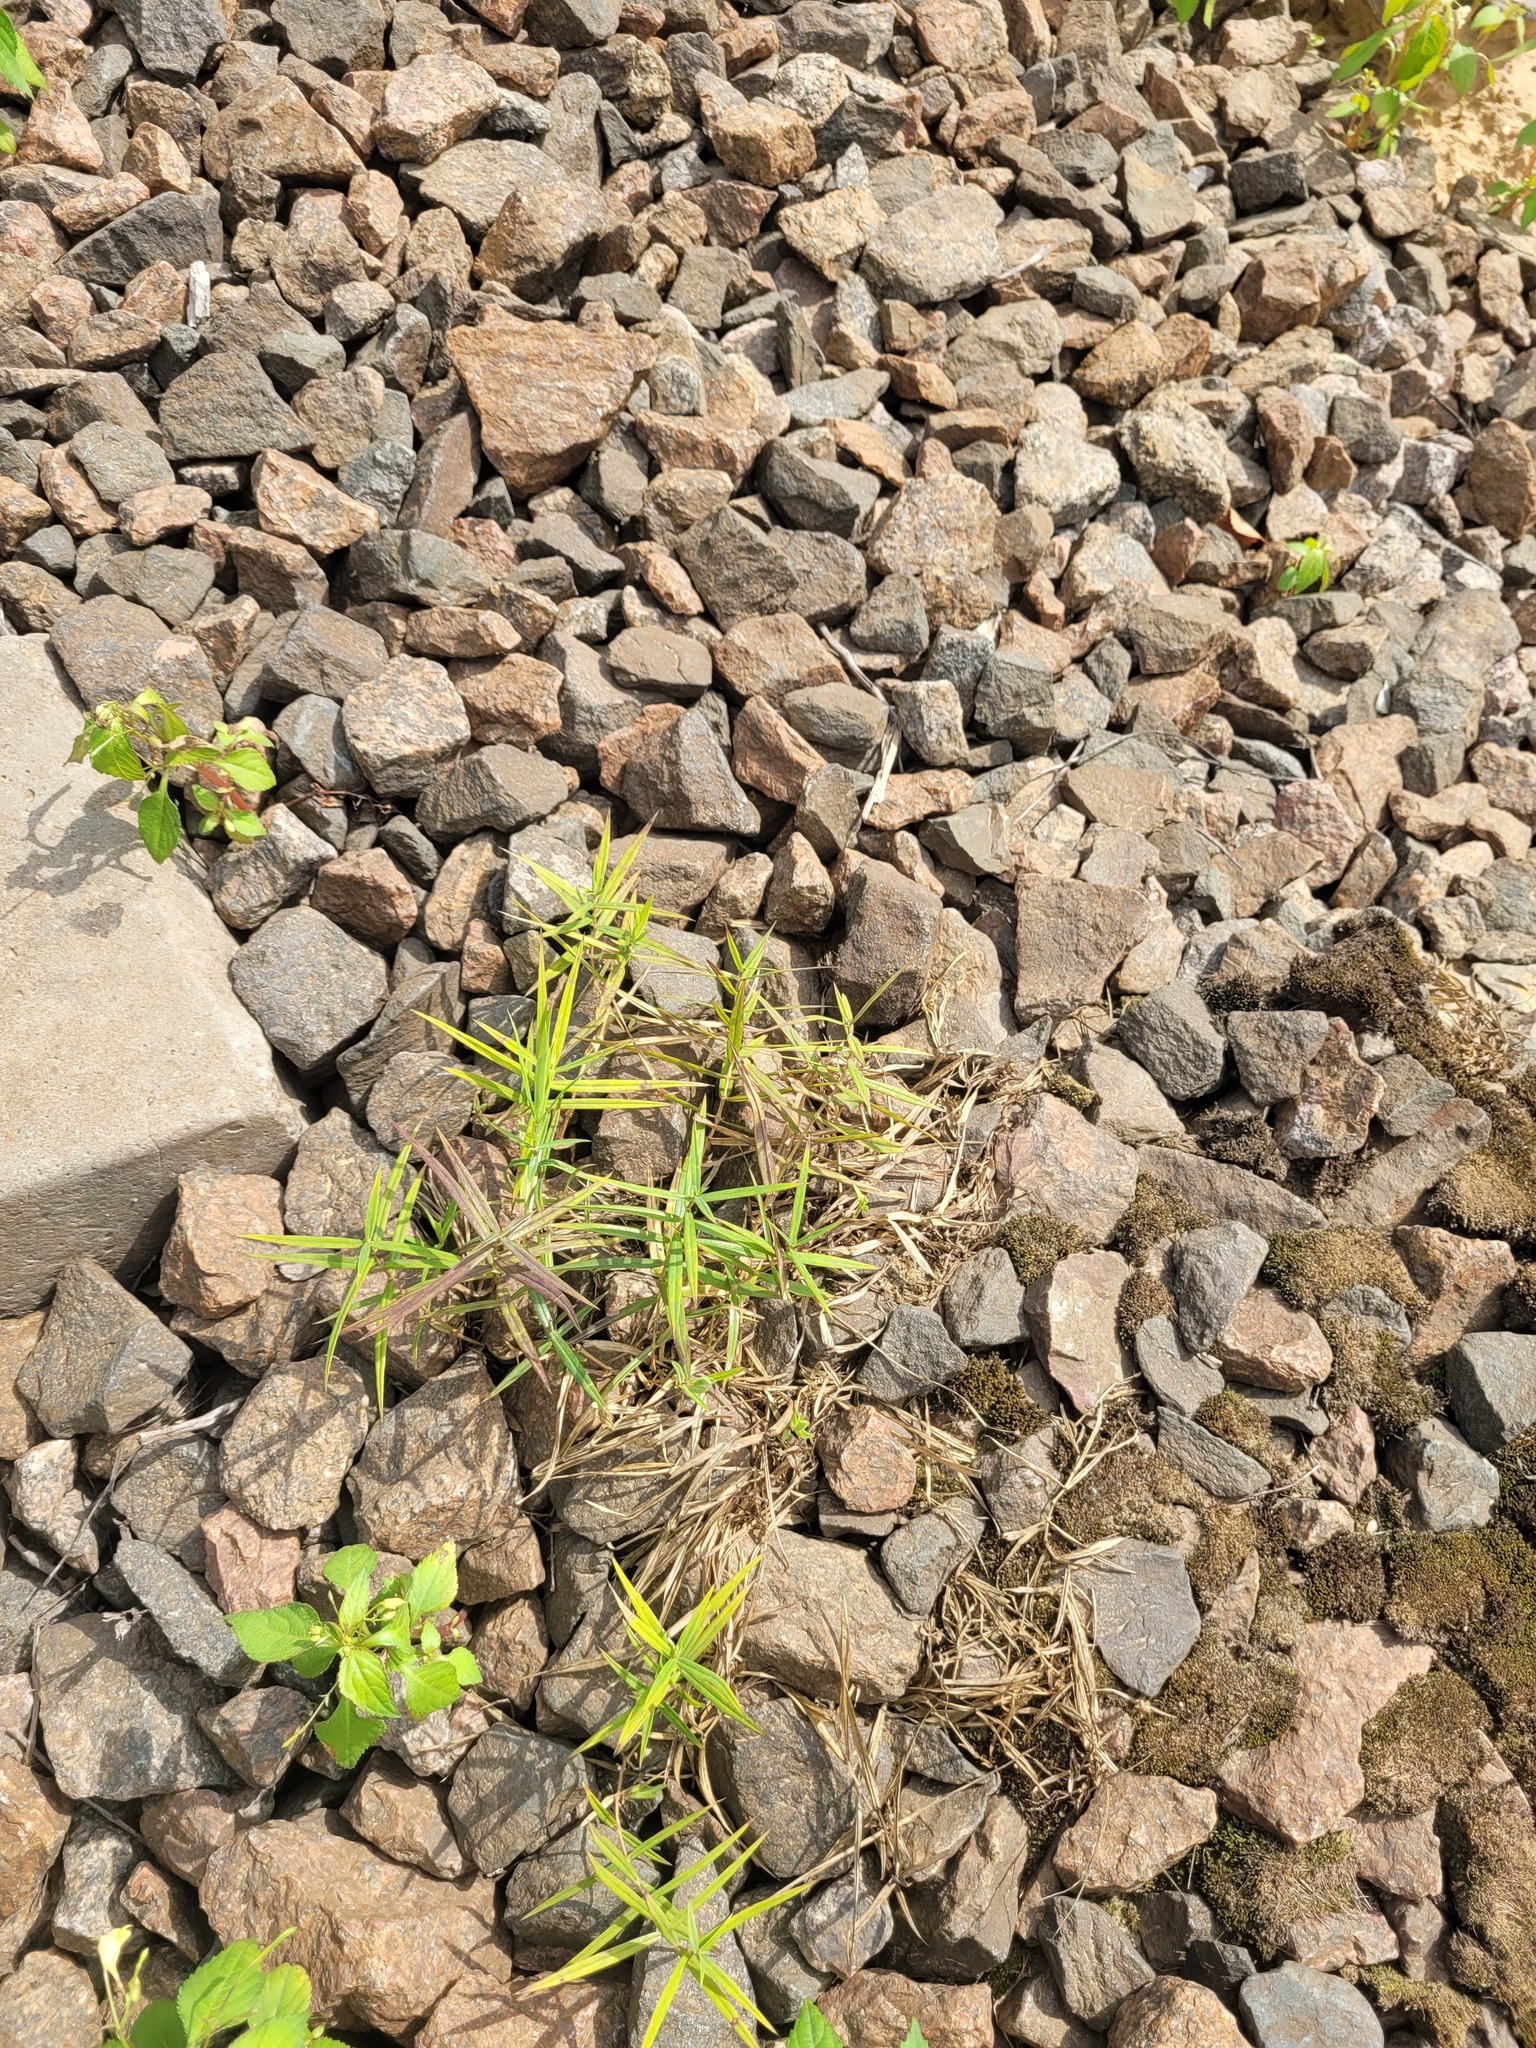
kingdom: Plantae
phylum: Tracheophyta
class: Magnoliopsida
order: Caryophyllales
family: Caryophyllaceae
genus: Rabelera
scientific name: Rabelera holostea
